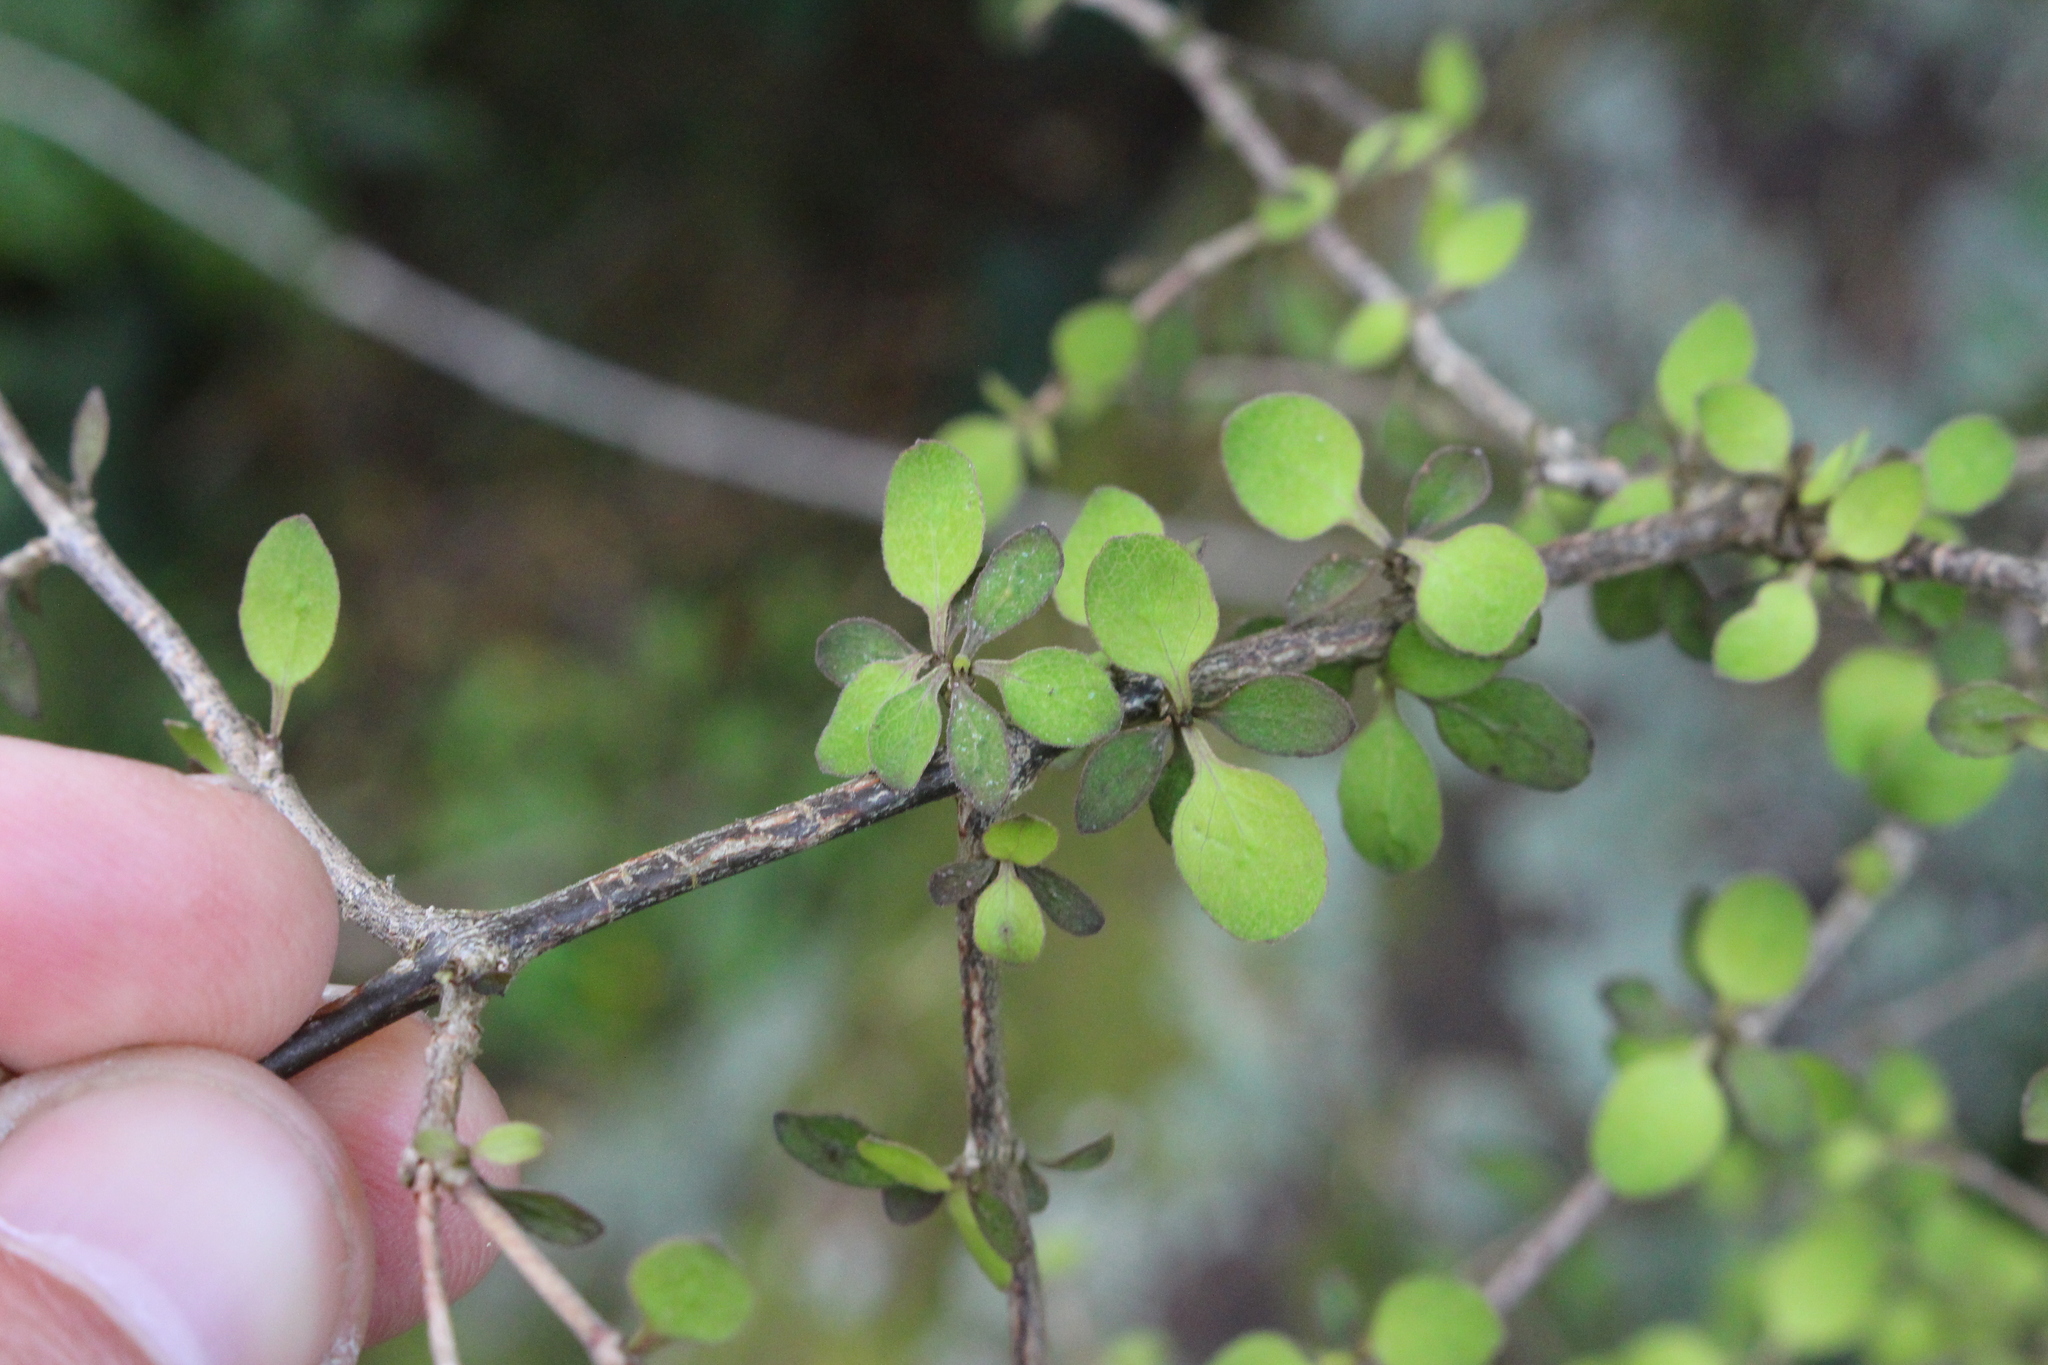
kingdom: Plantae
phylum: Tracheophyta
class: Magnoliopsida
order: Gentianales
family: Rubiaceae
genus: Coprosma
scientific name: Coprosma rhamnoides
